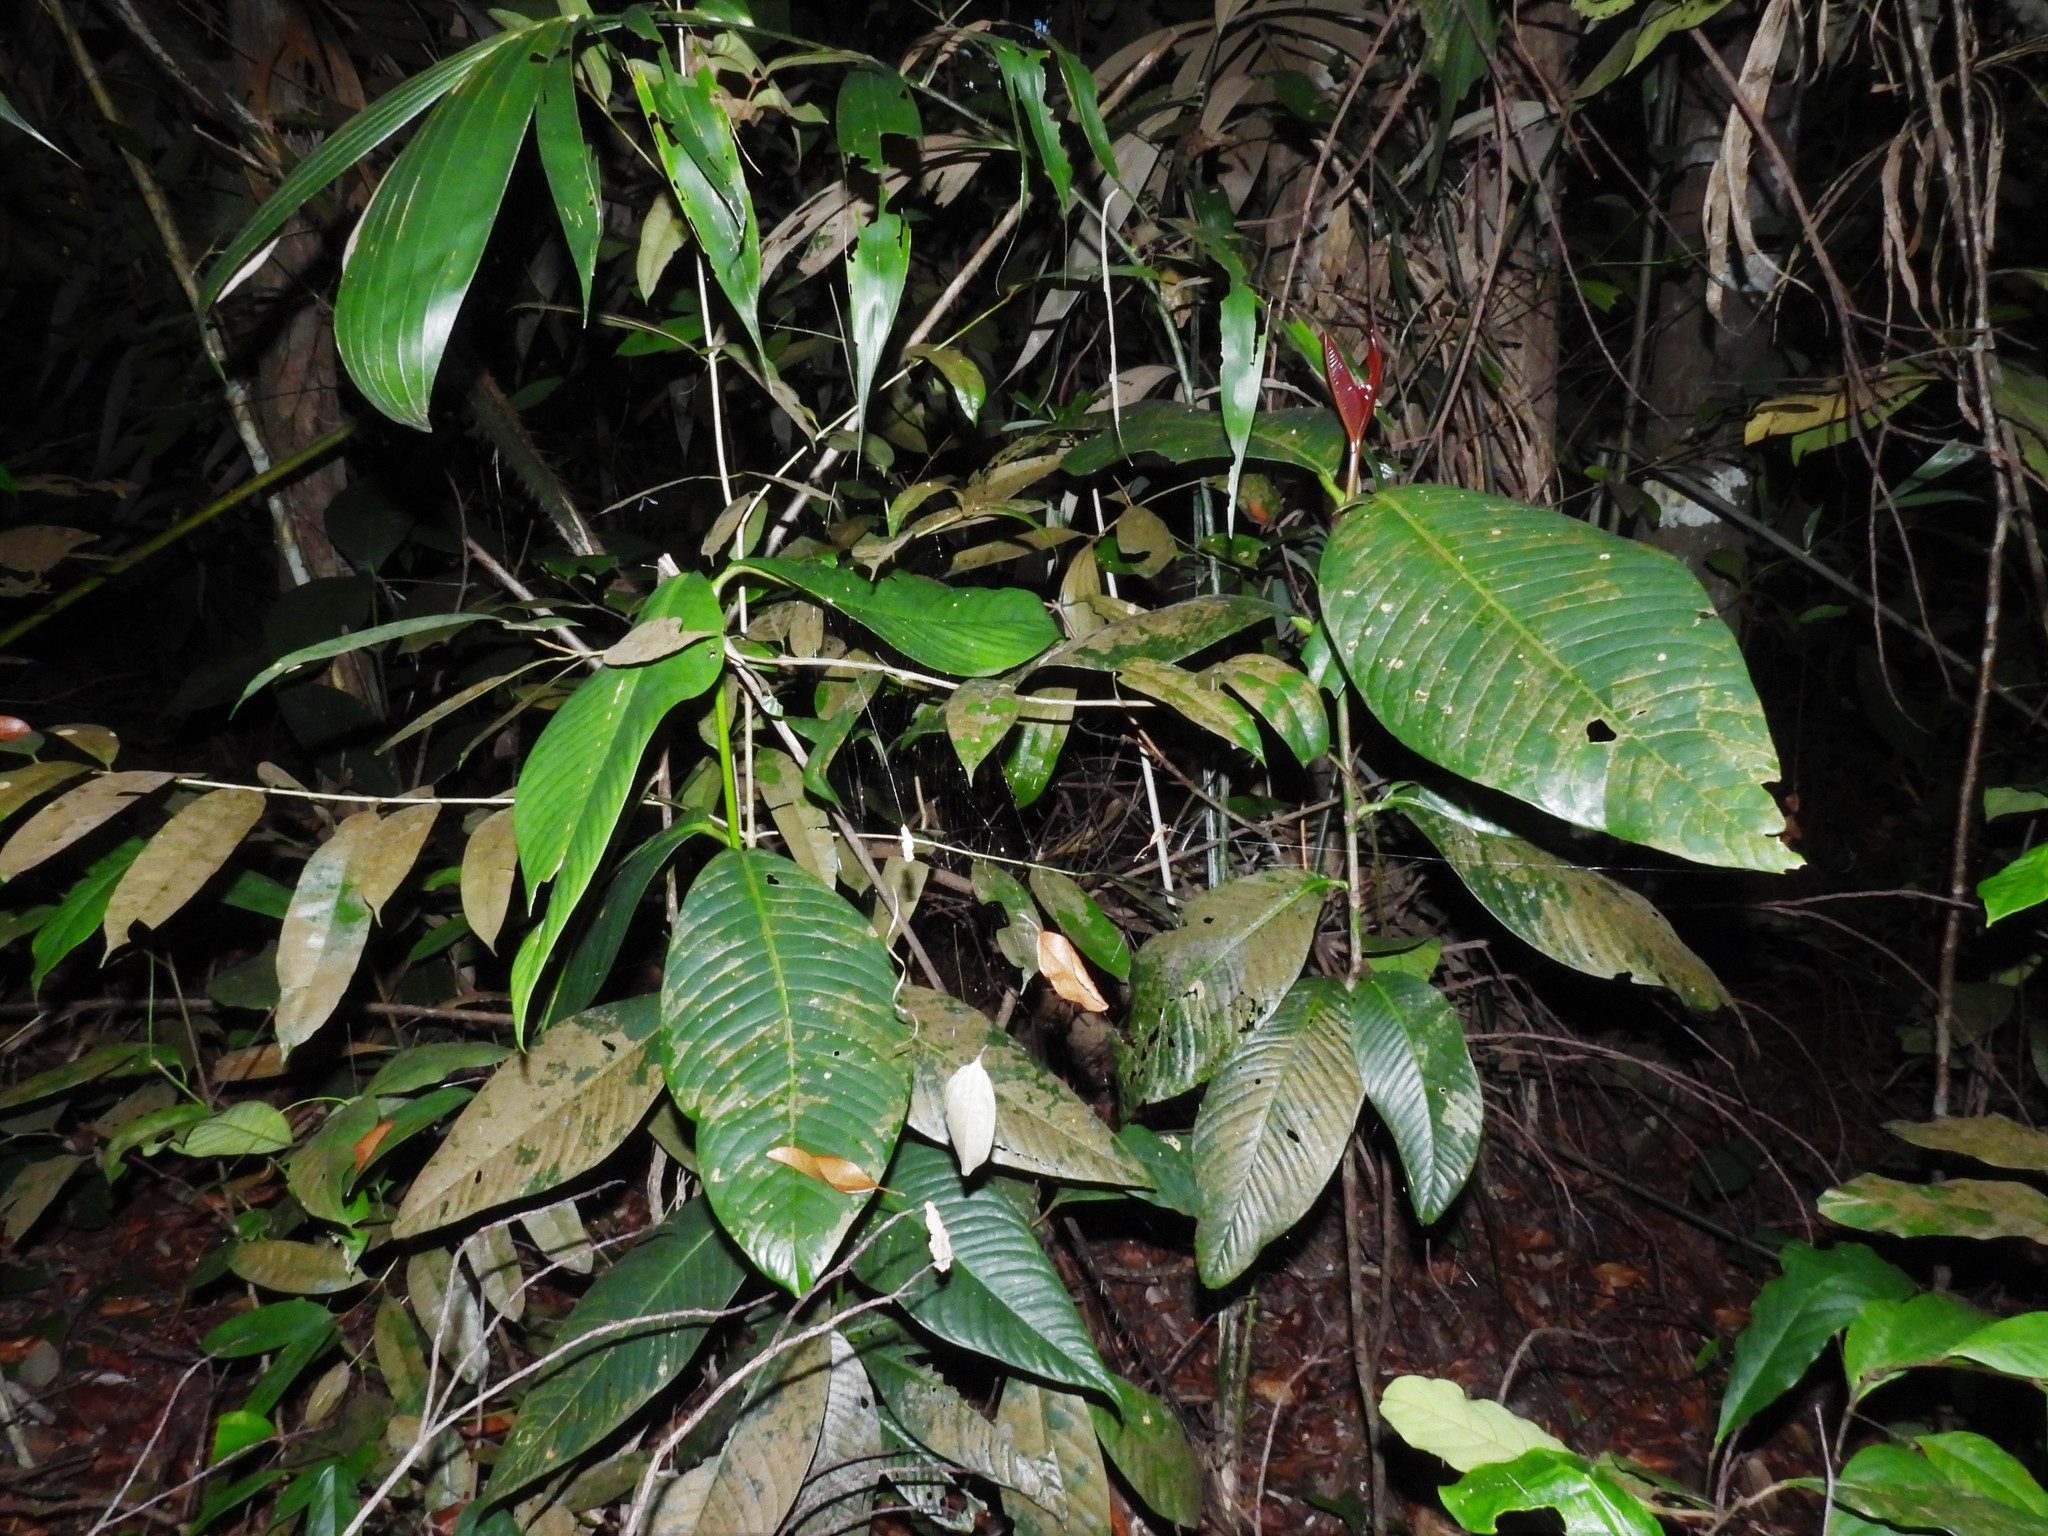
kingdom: Plantae
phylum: Tracheophyta
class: Magnoliopsida
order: Malpighiales
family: Clusiaceae
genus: Garcinia
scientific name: Garcinia griffithii
